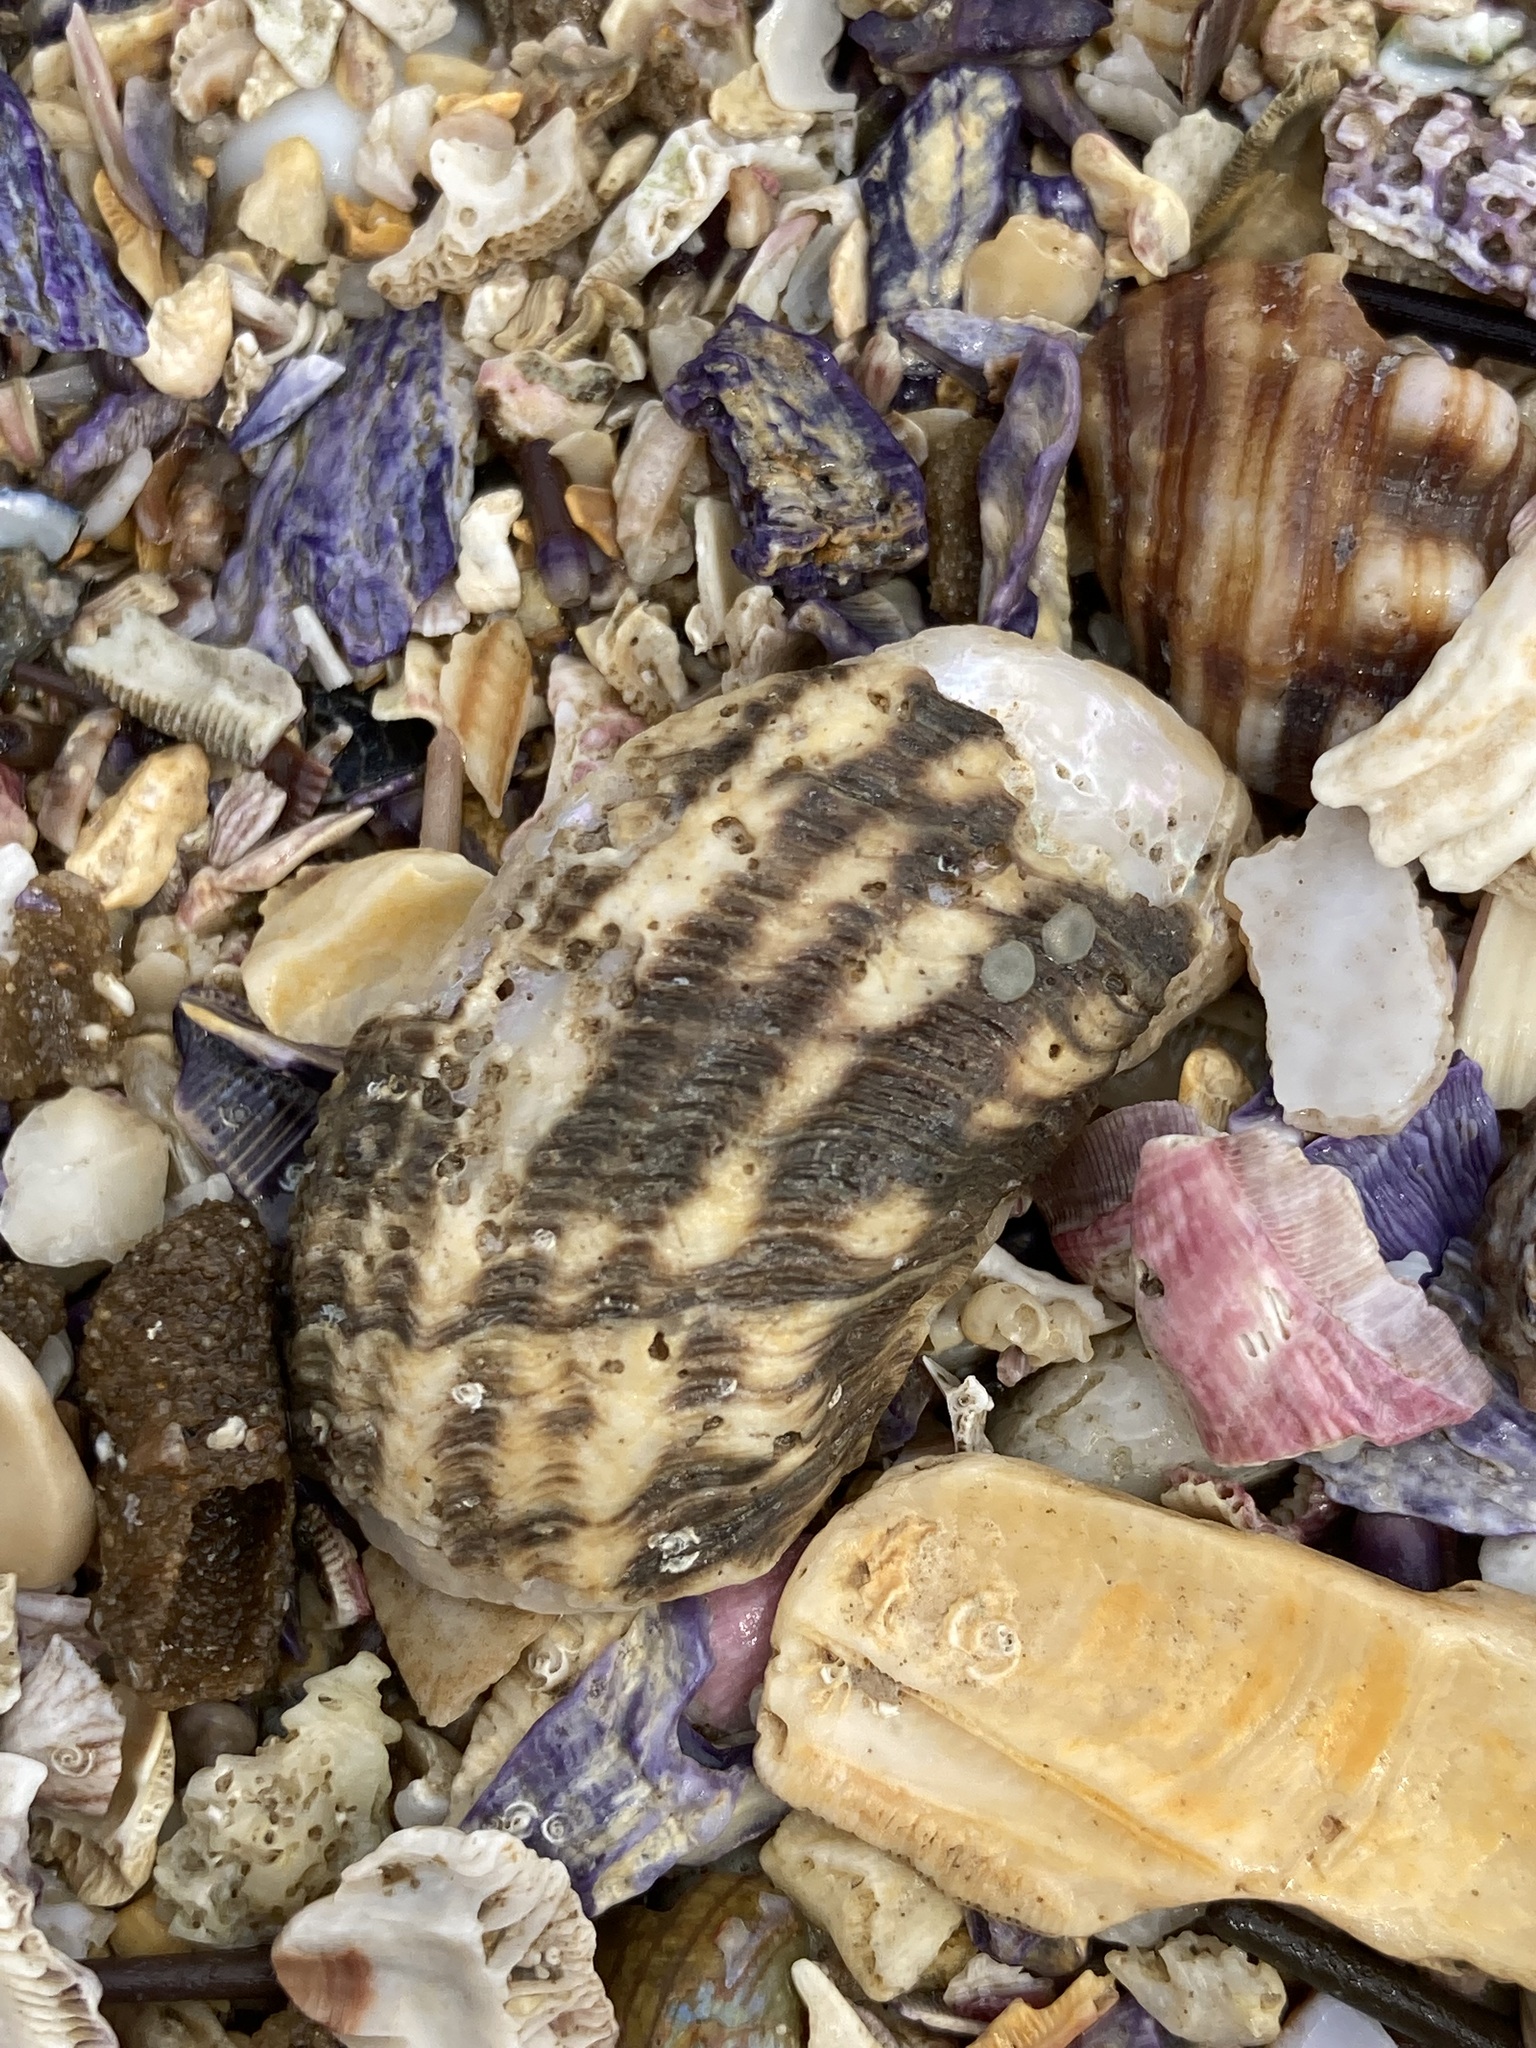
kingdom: Animalia
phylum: Mollusca
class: Gastropoda
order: Trochida
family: Turbinidae
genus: Lunella
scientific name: Lunella torquata
